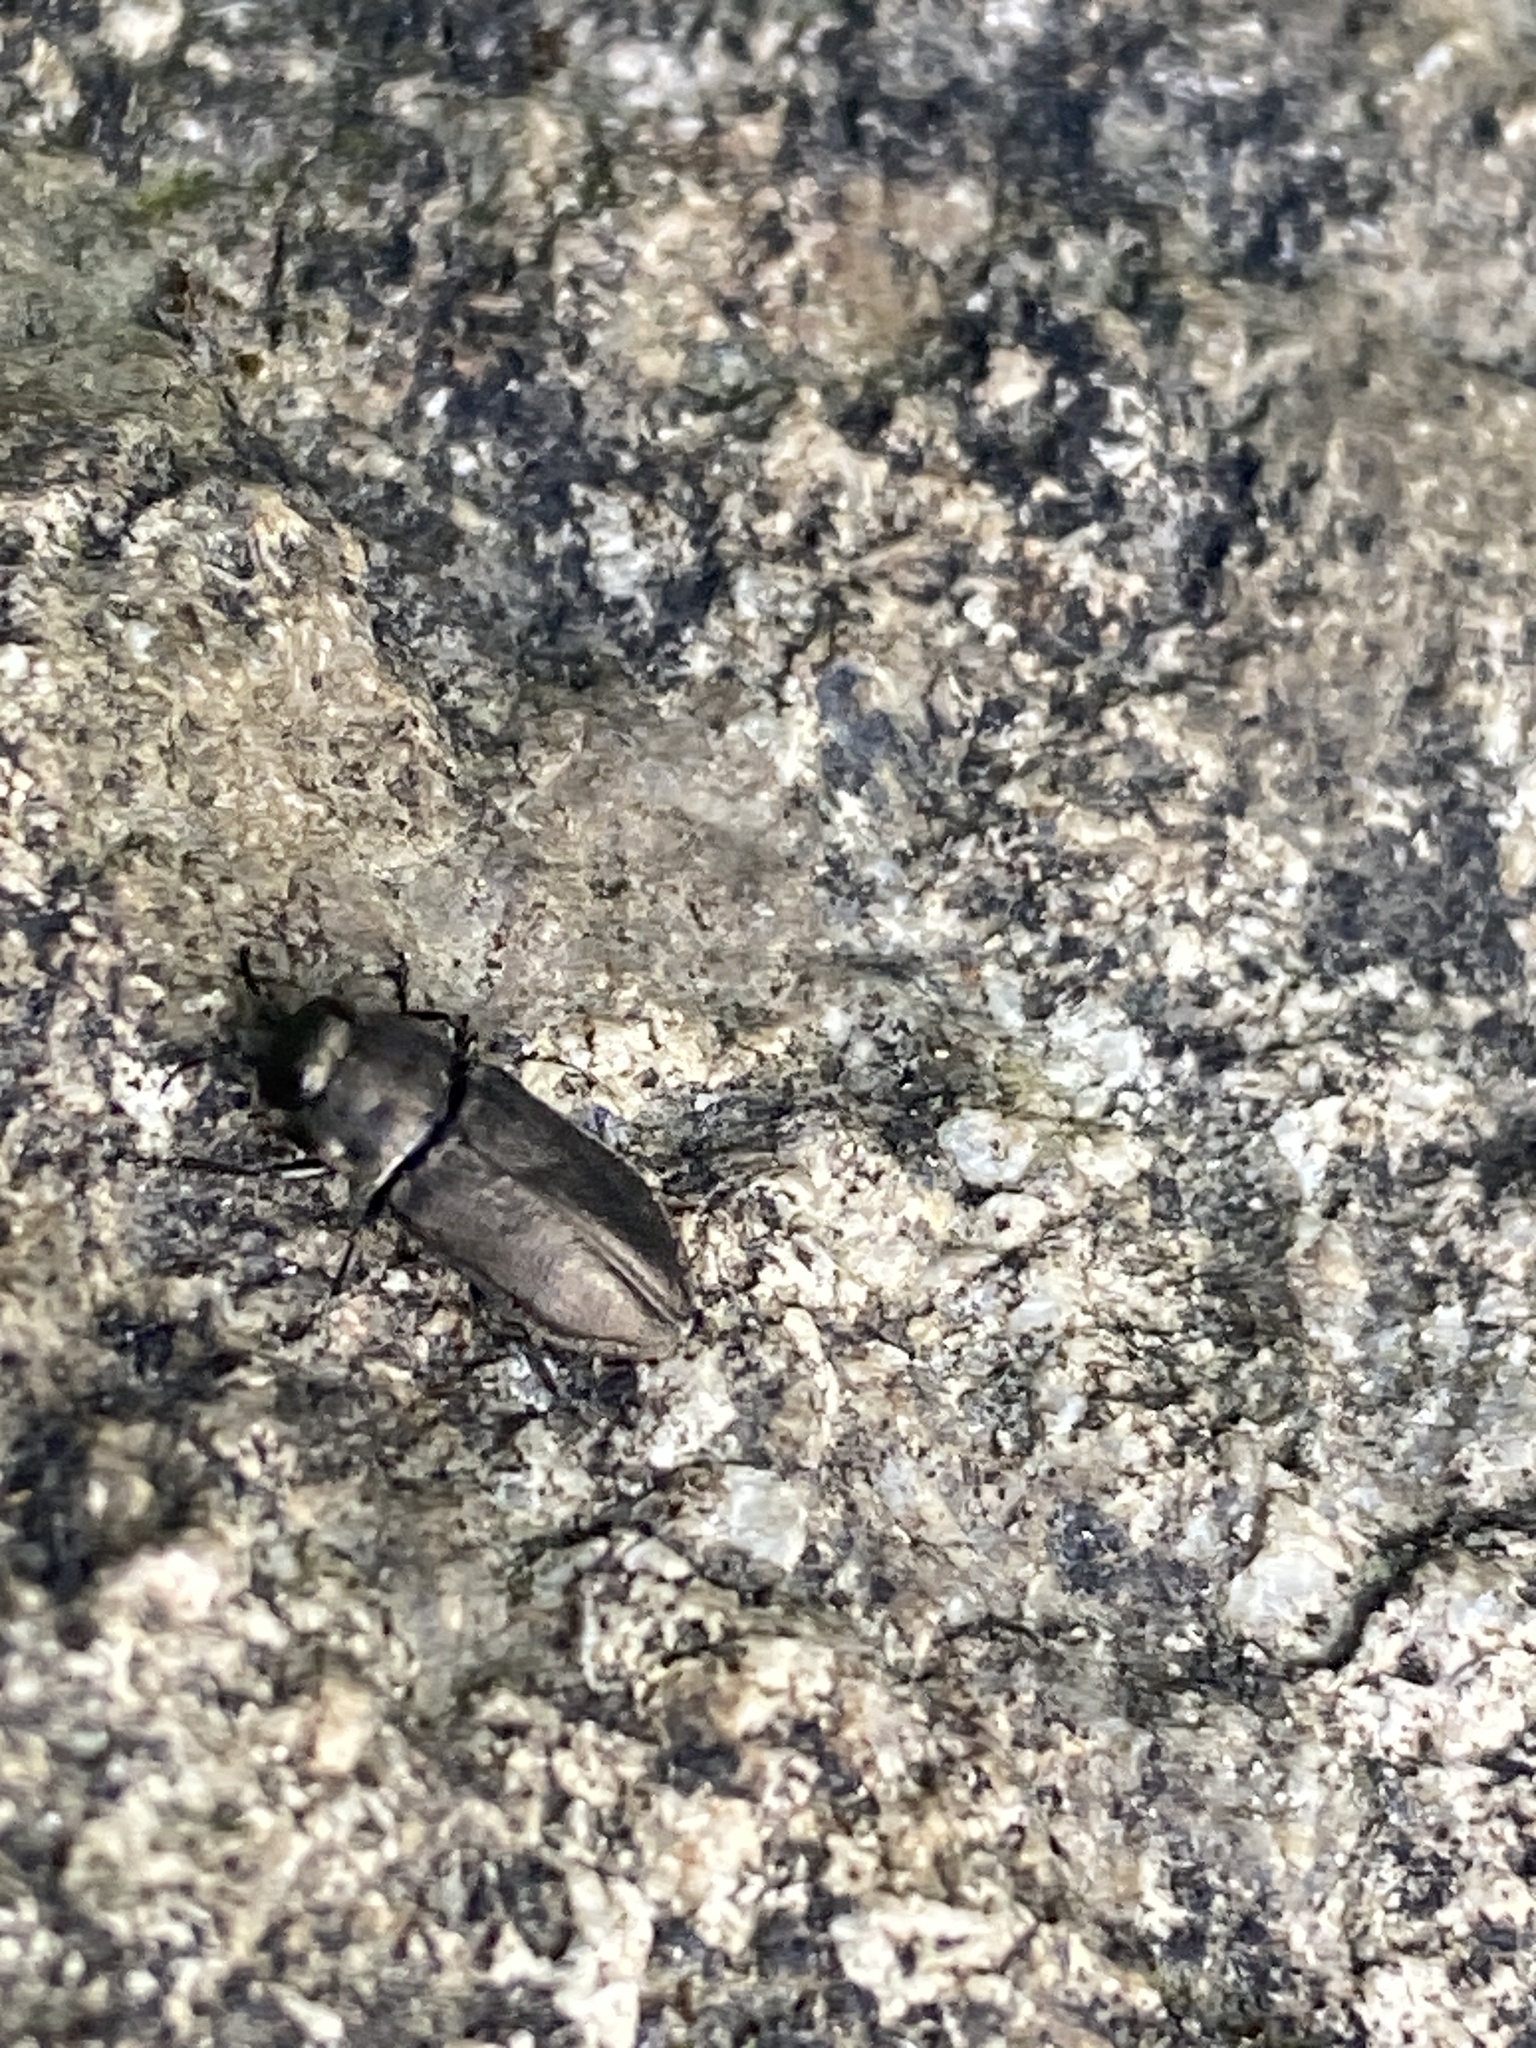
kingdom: Animalia
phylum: Arthropoda
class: Insecta
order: Coleoptera
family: Buprestidae
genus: Anthaxia
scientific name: Anthaxia quadripunctata
